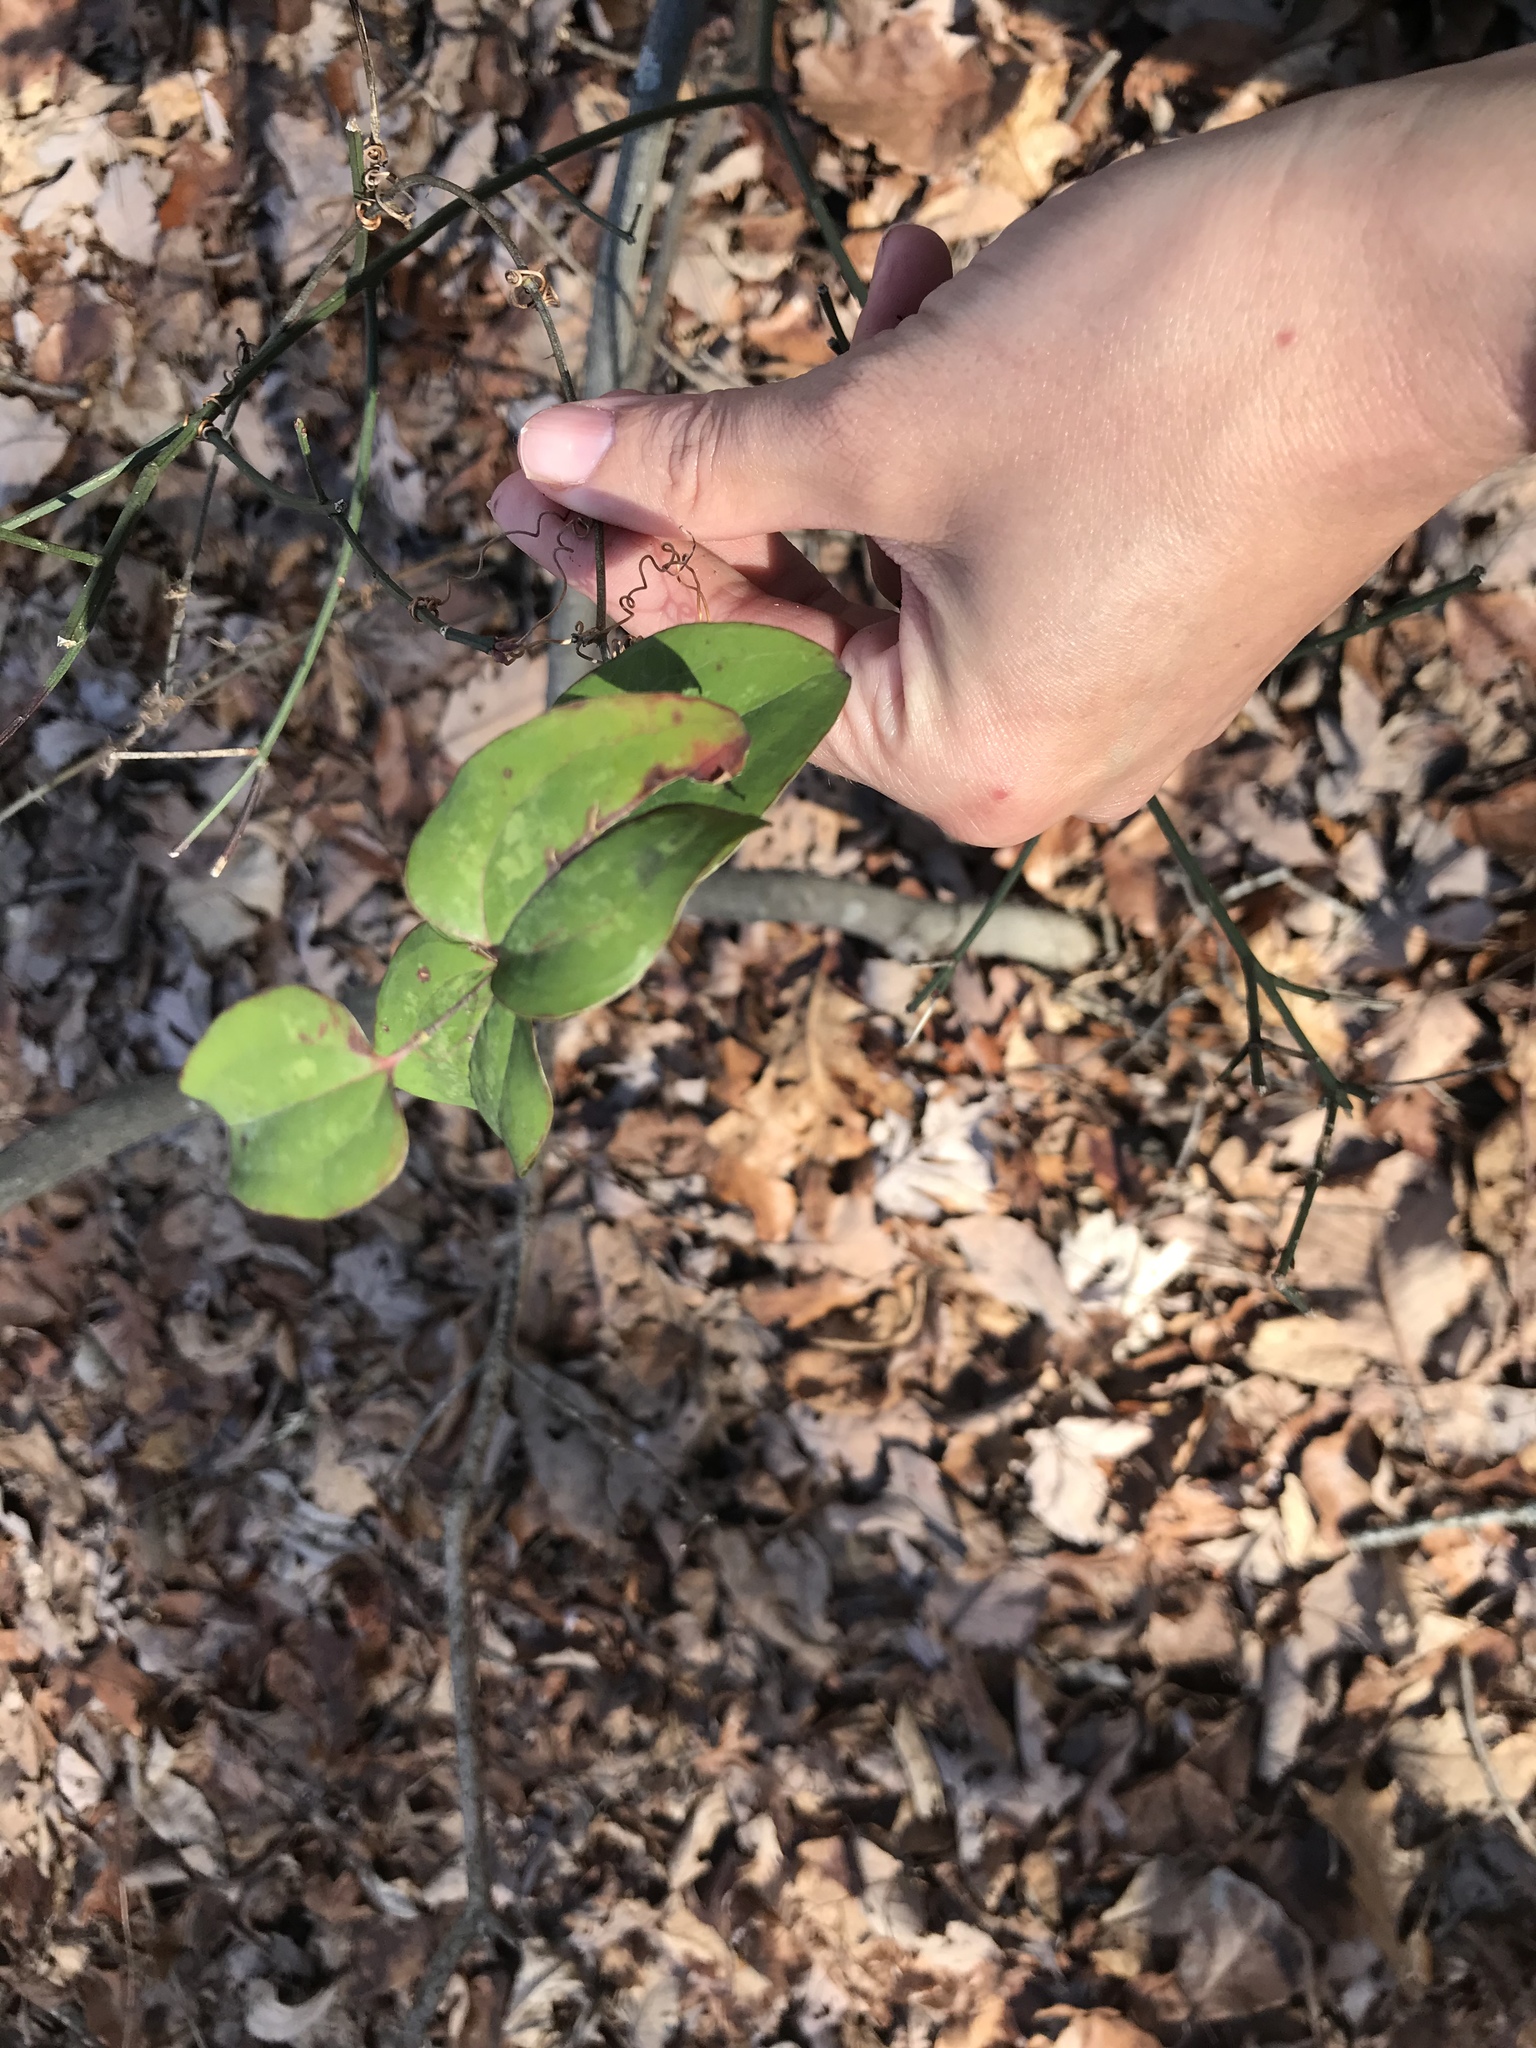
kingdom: Plantae
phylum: Tracheophyta
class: Liliopsida
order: Liliales
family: Smilacaceae
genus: Smilax
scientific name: Smilax glauca
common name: Cat greenbrier
